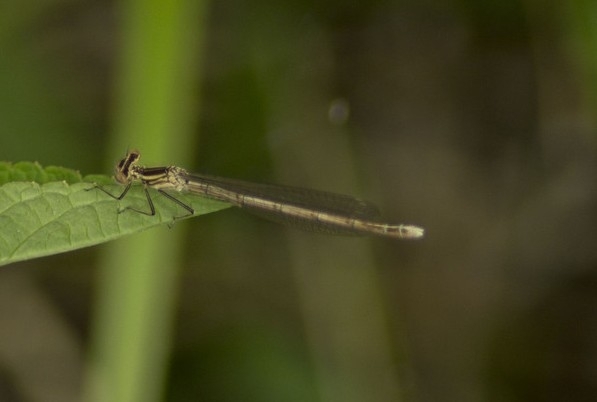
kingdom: Animalia
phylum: Arthropoda
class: Insecta
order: Odonata
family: Platycnemididae
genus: Platycnemis
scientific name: Platycnemis pennipes
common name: White-legged damselfly
